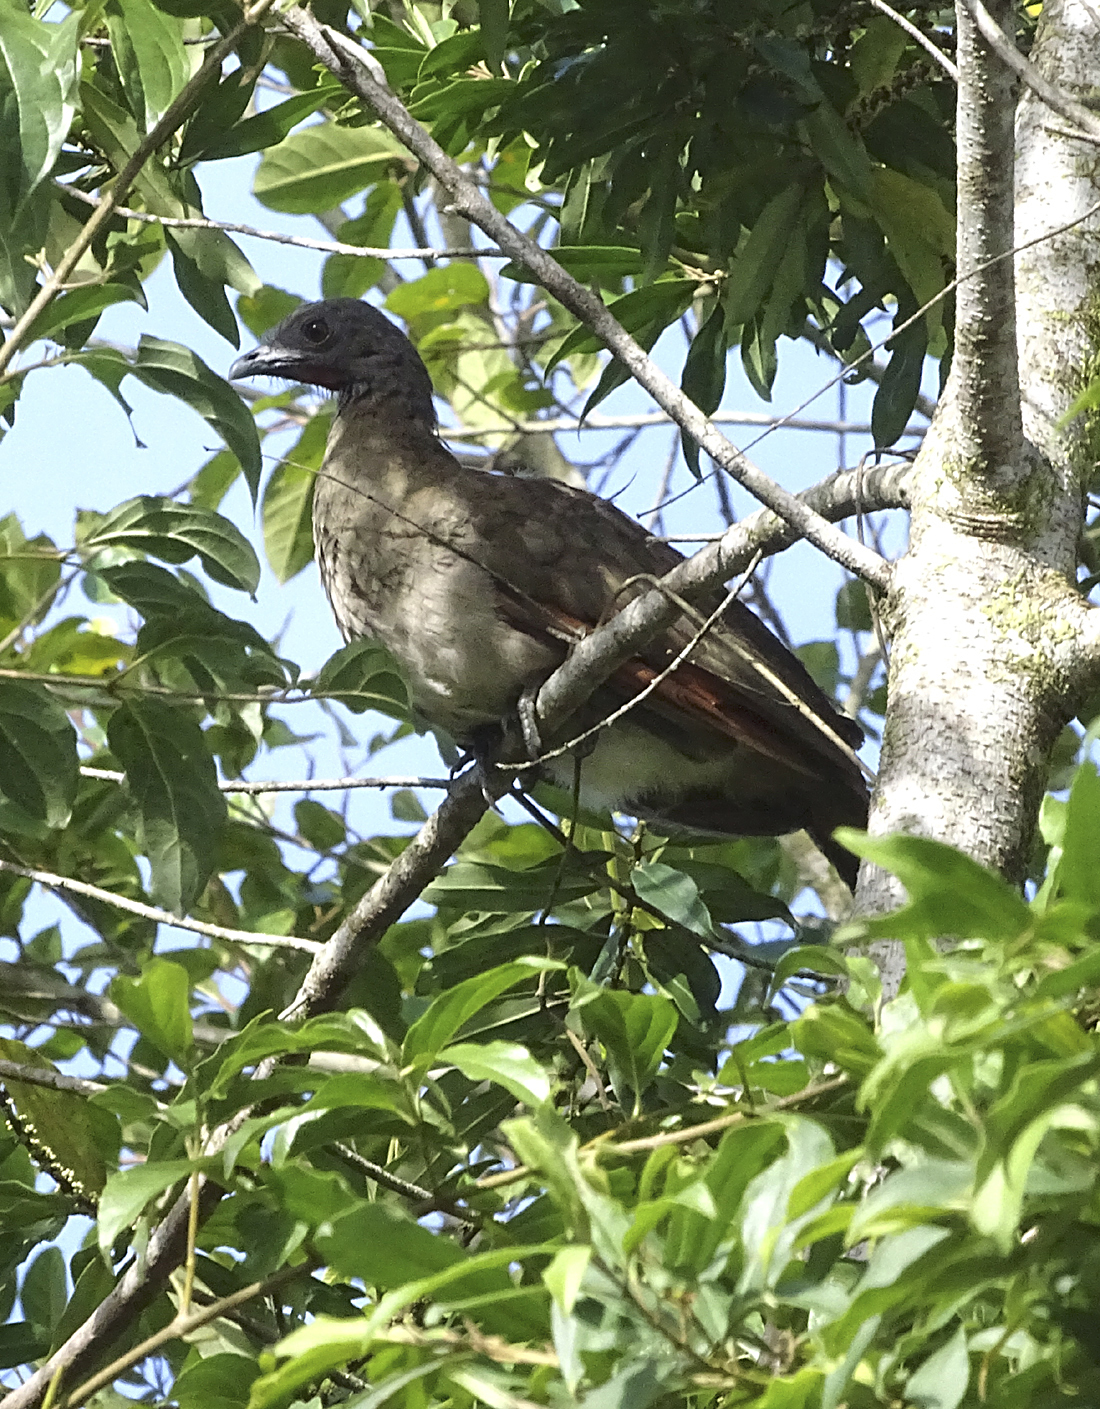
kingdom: Animalia
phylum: Chordata
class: Aves
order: Galliformes
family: Cracidae
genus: Ortalis
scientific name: Ortalis cinereiceps
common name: Grey-headed chachalaca
